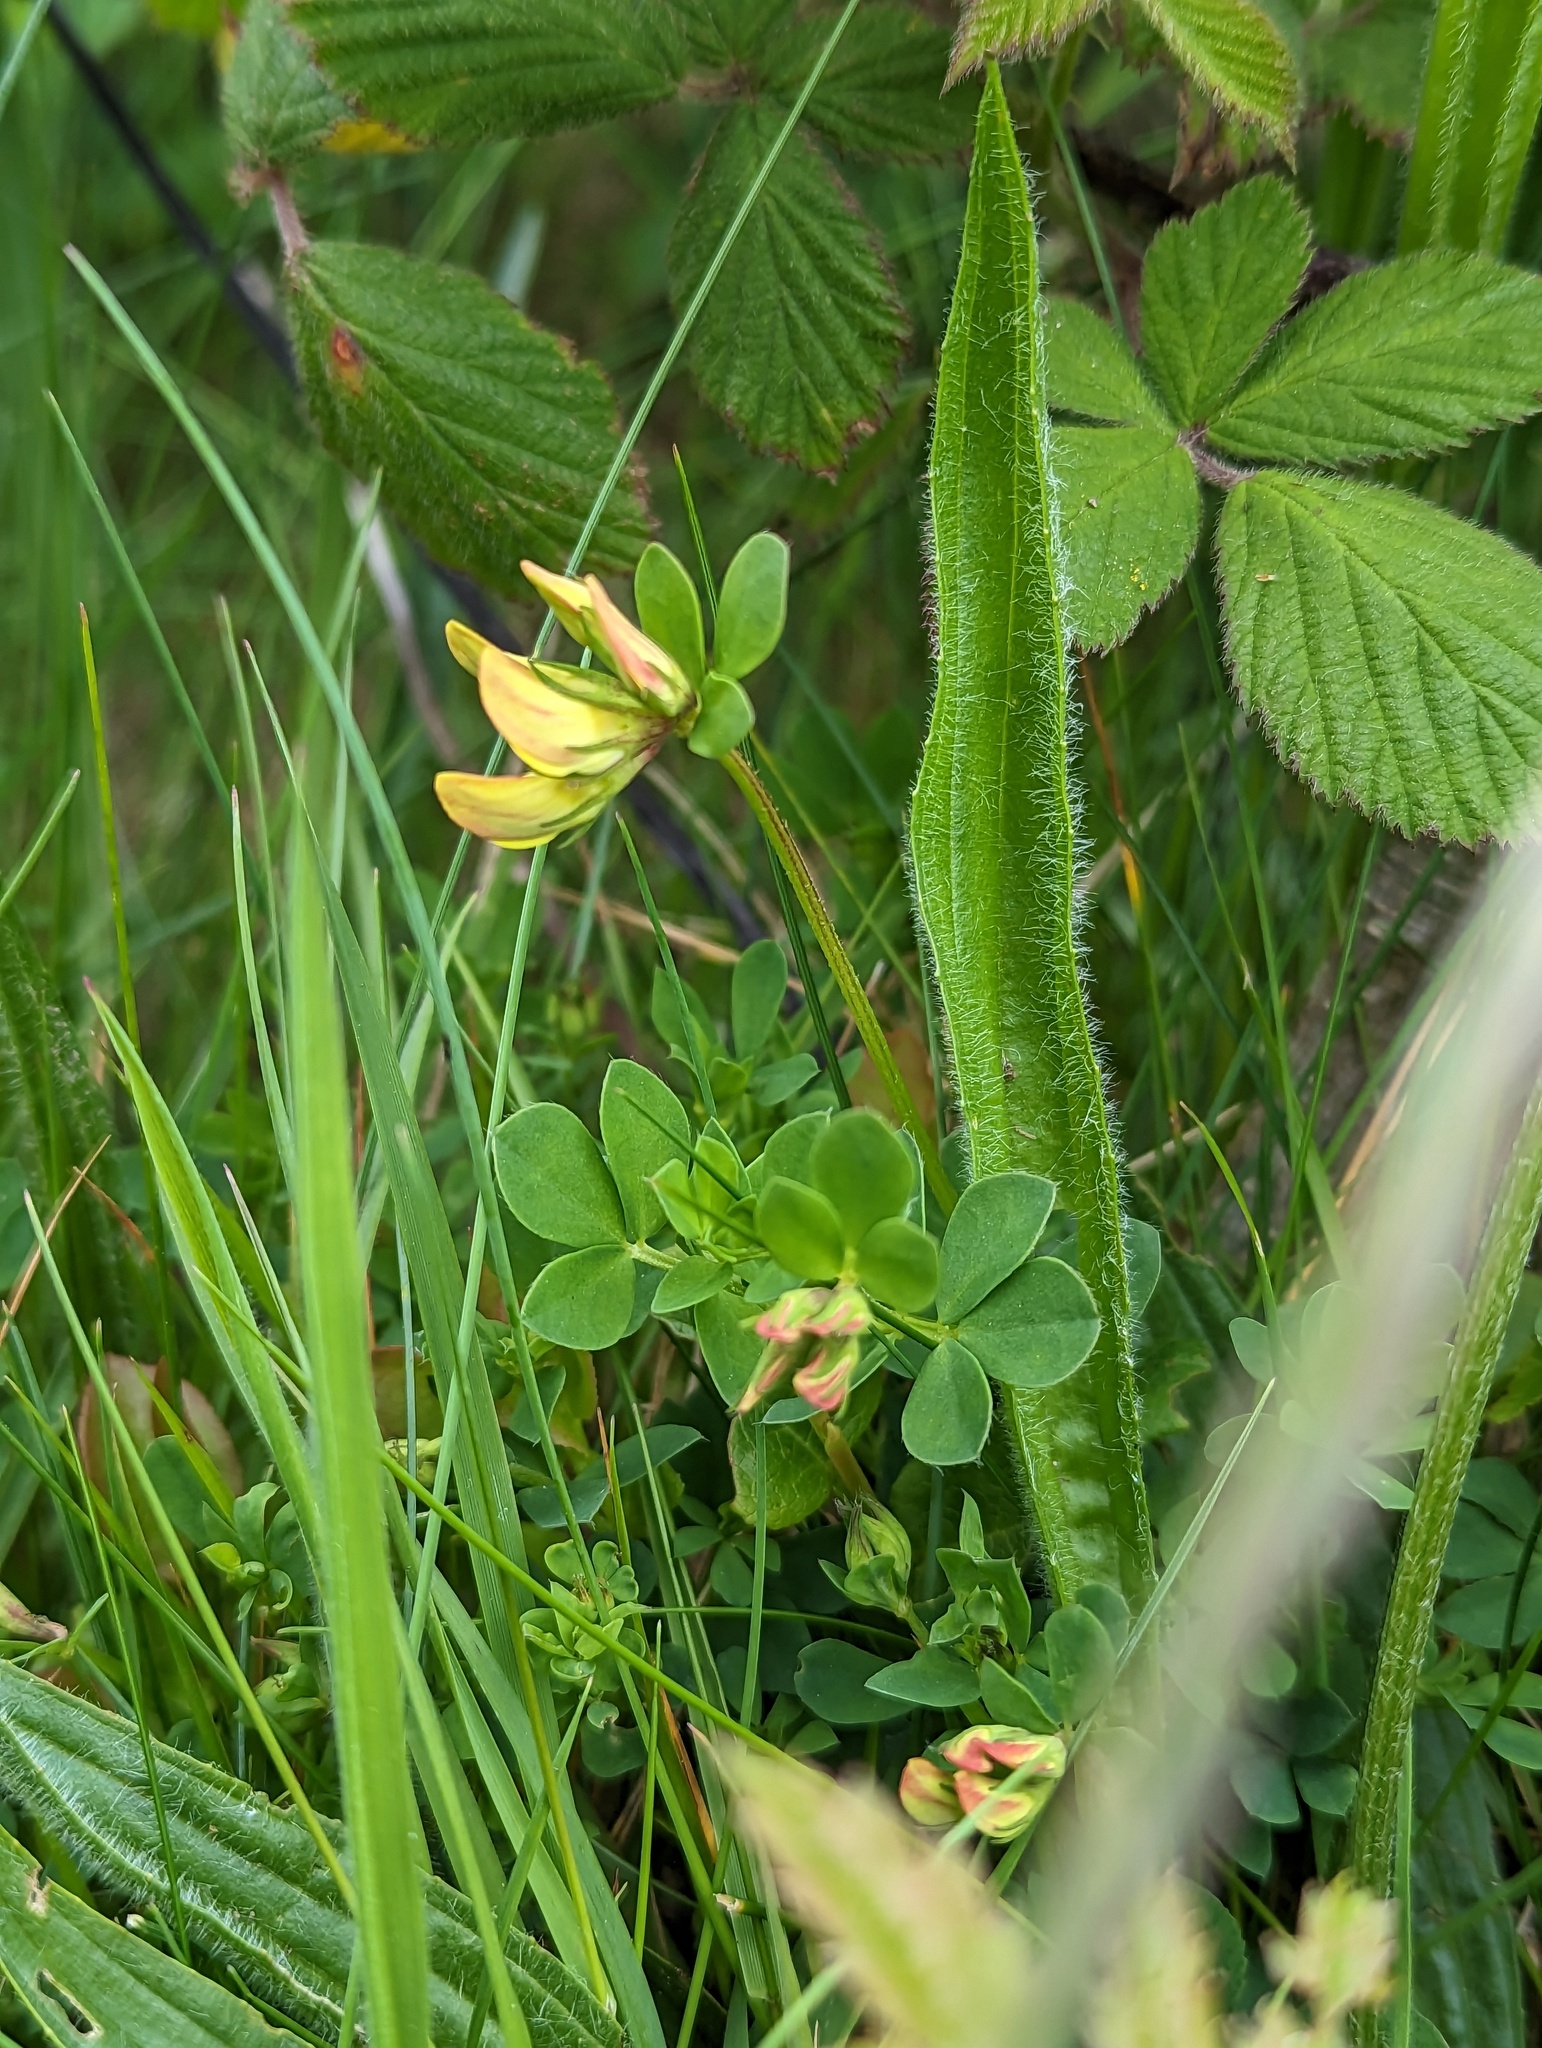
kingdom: Plantae
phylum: Tracheophyta
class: Magnoliopsida
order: Fabales
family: Fabaceae
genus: Lotus
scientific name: Lotus corniculatus
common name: Common bird's-foot-trefoil
